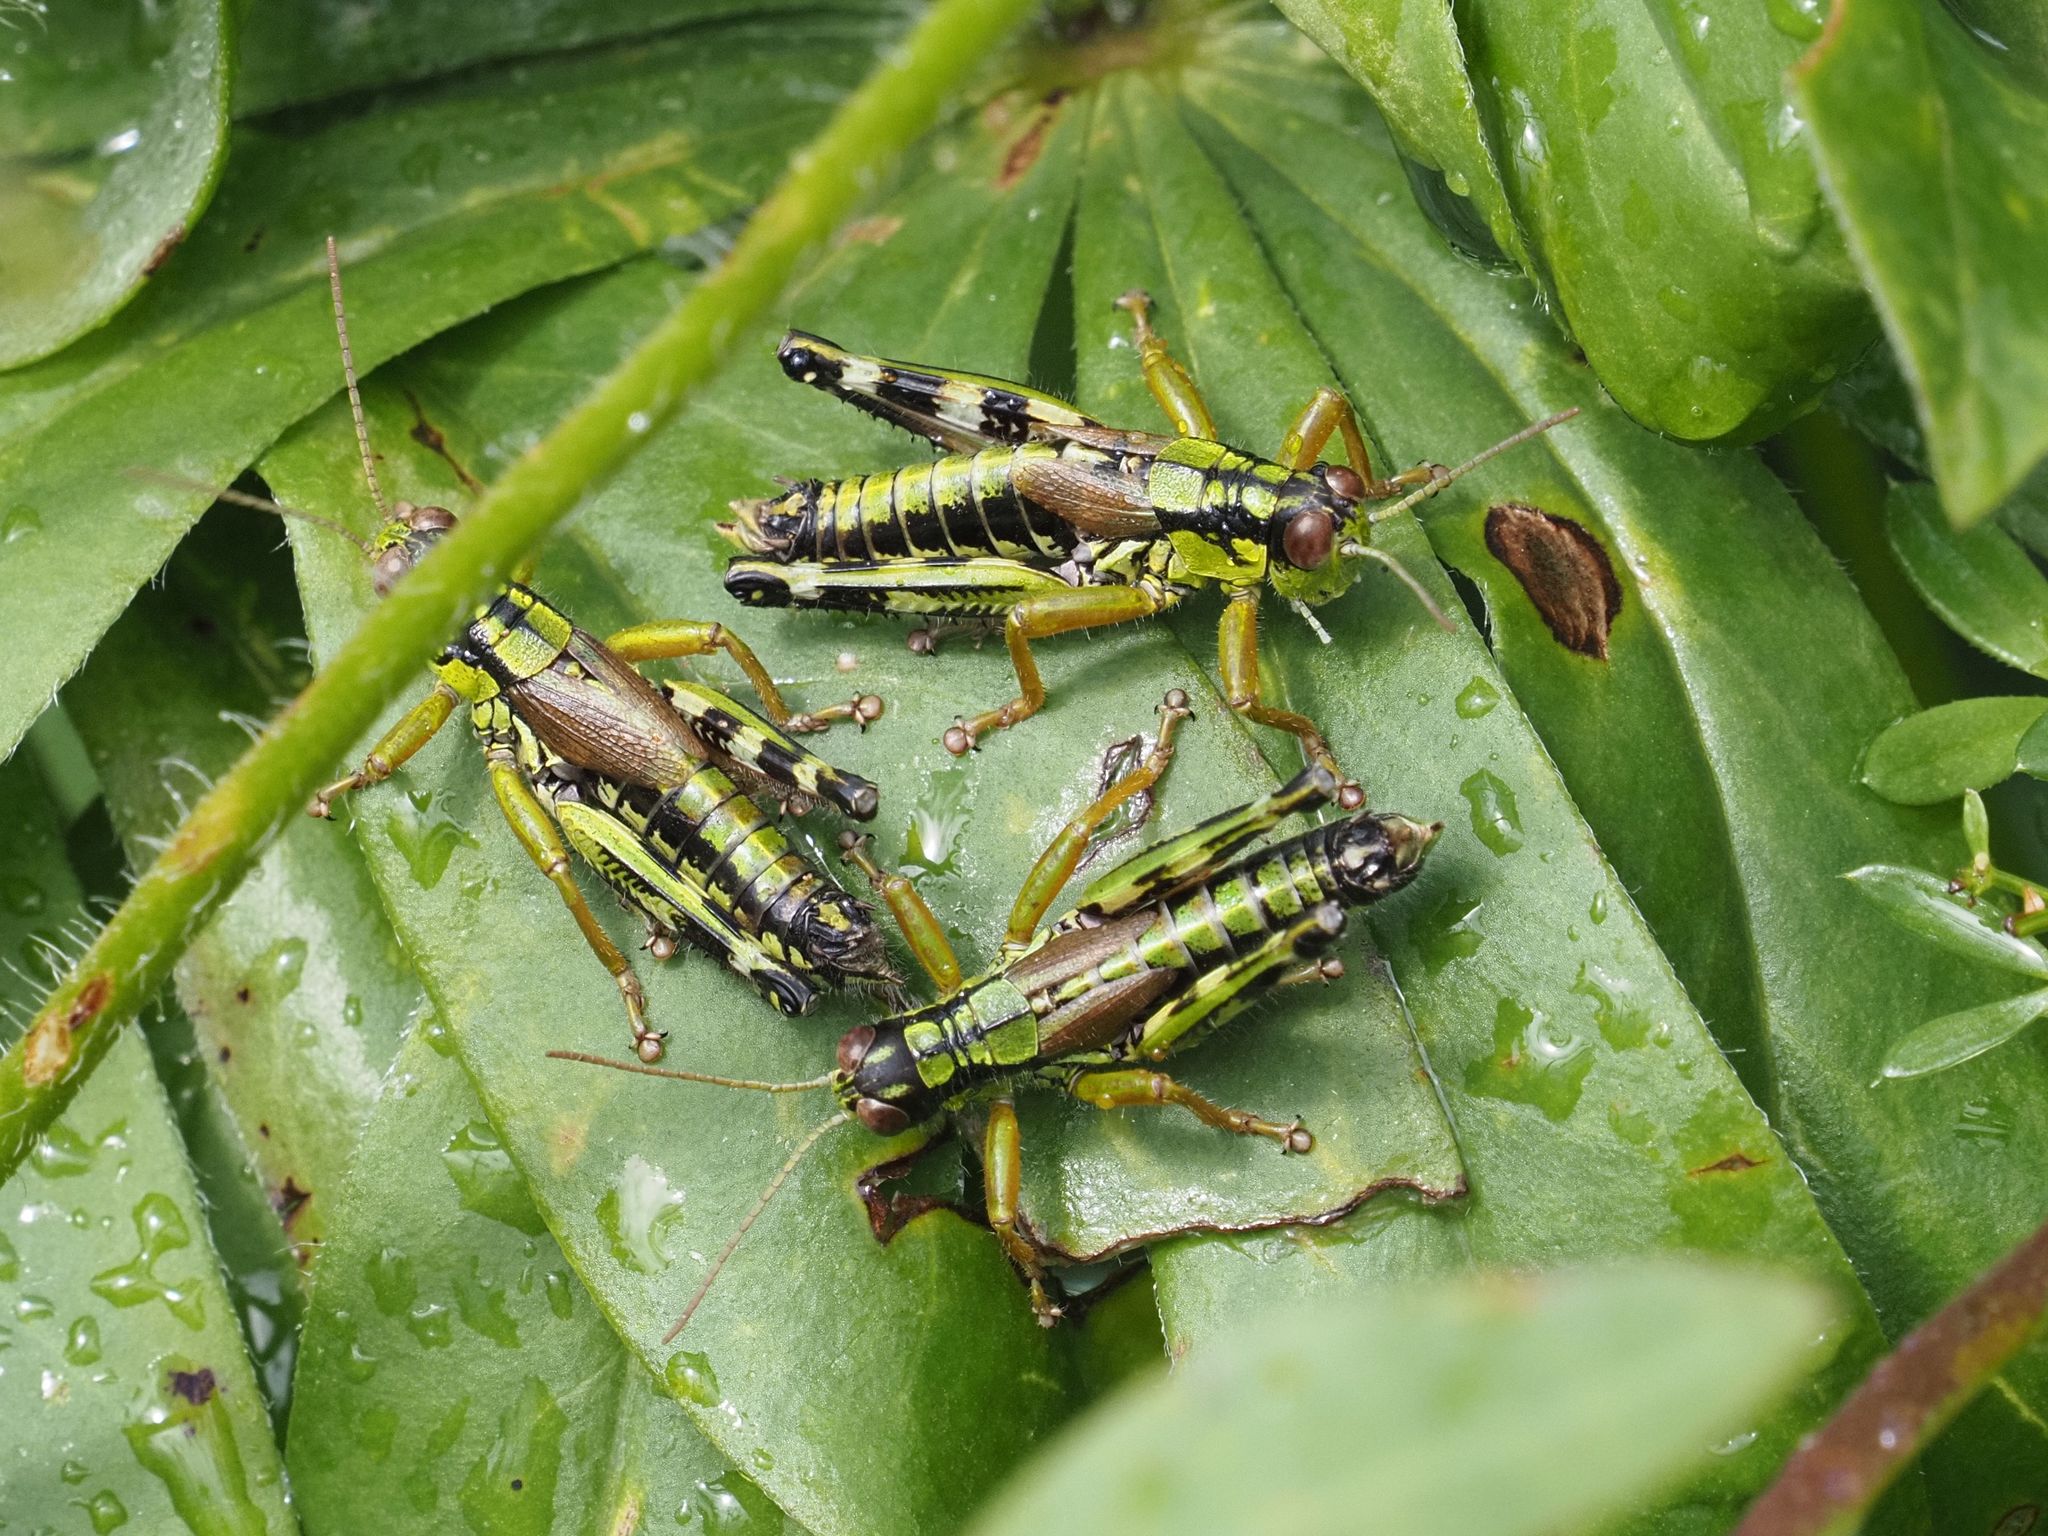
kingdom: Animalia
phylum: Arthropoda
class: Insecta
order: Orthoptera
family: Acrididae
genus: Miramella
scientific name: Miramella alpina
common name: Green mountain grasshopper
